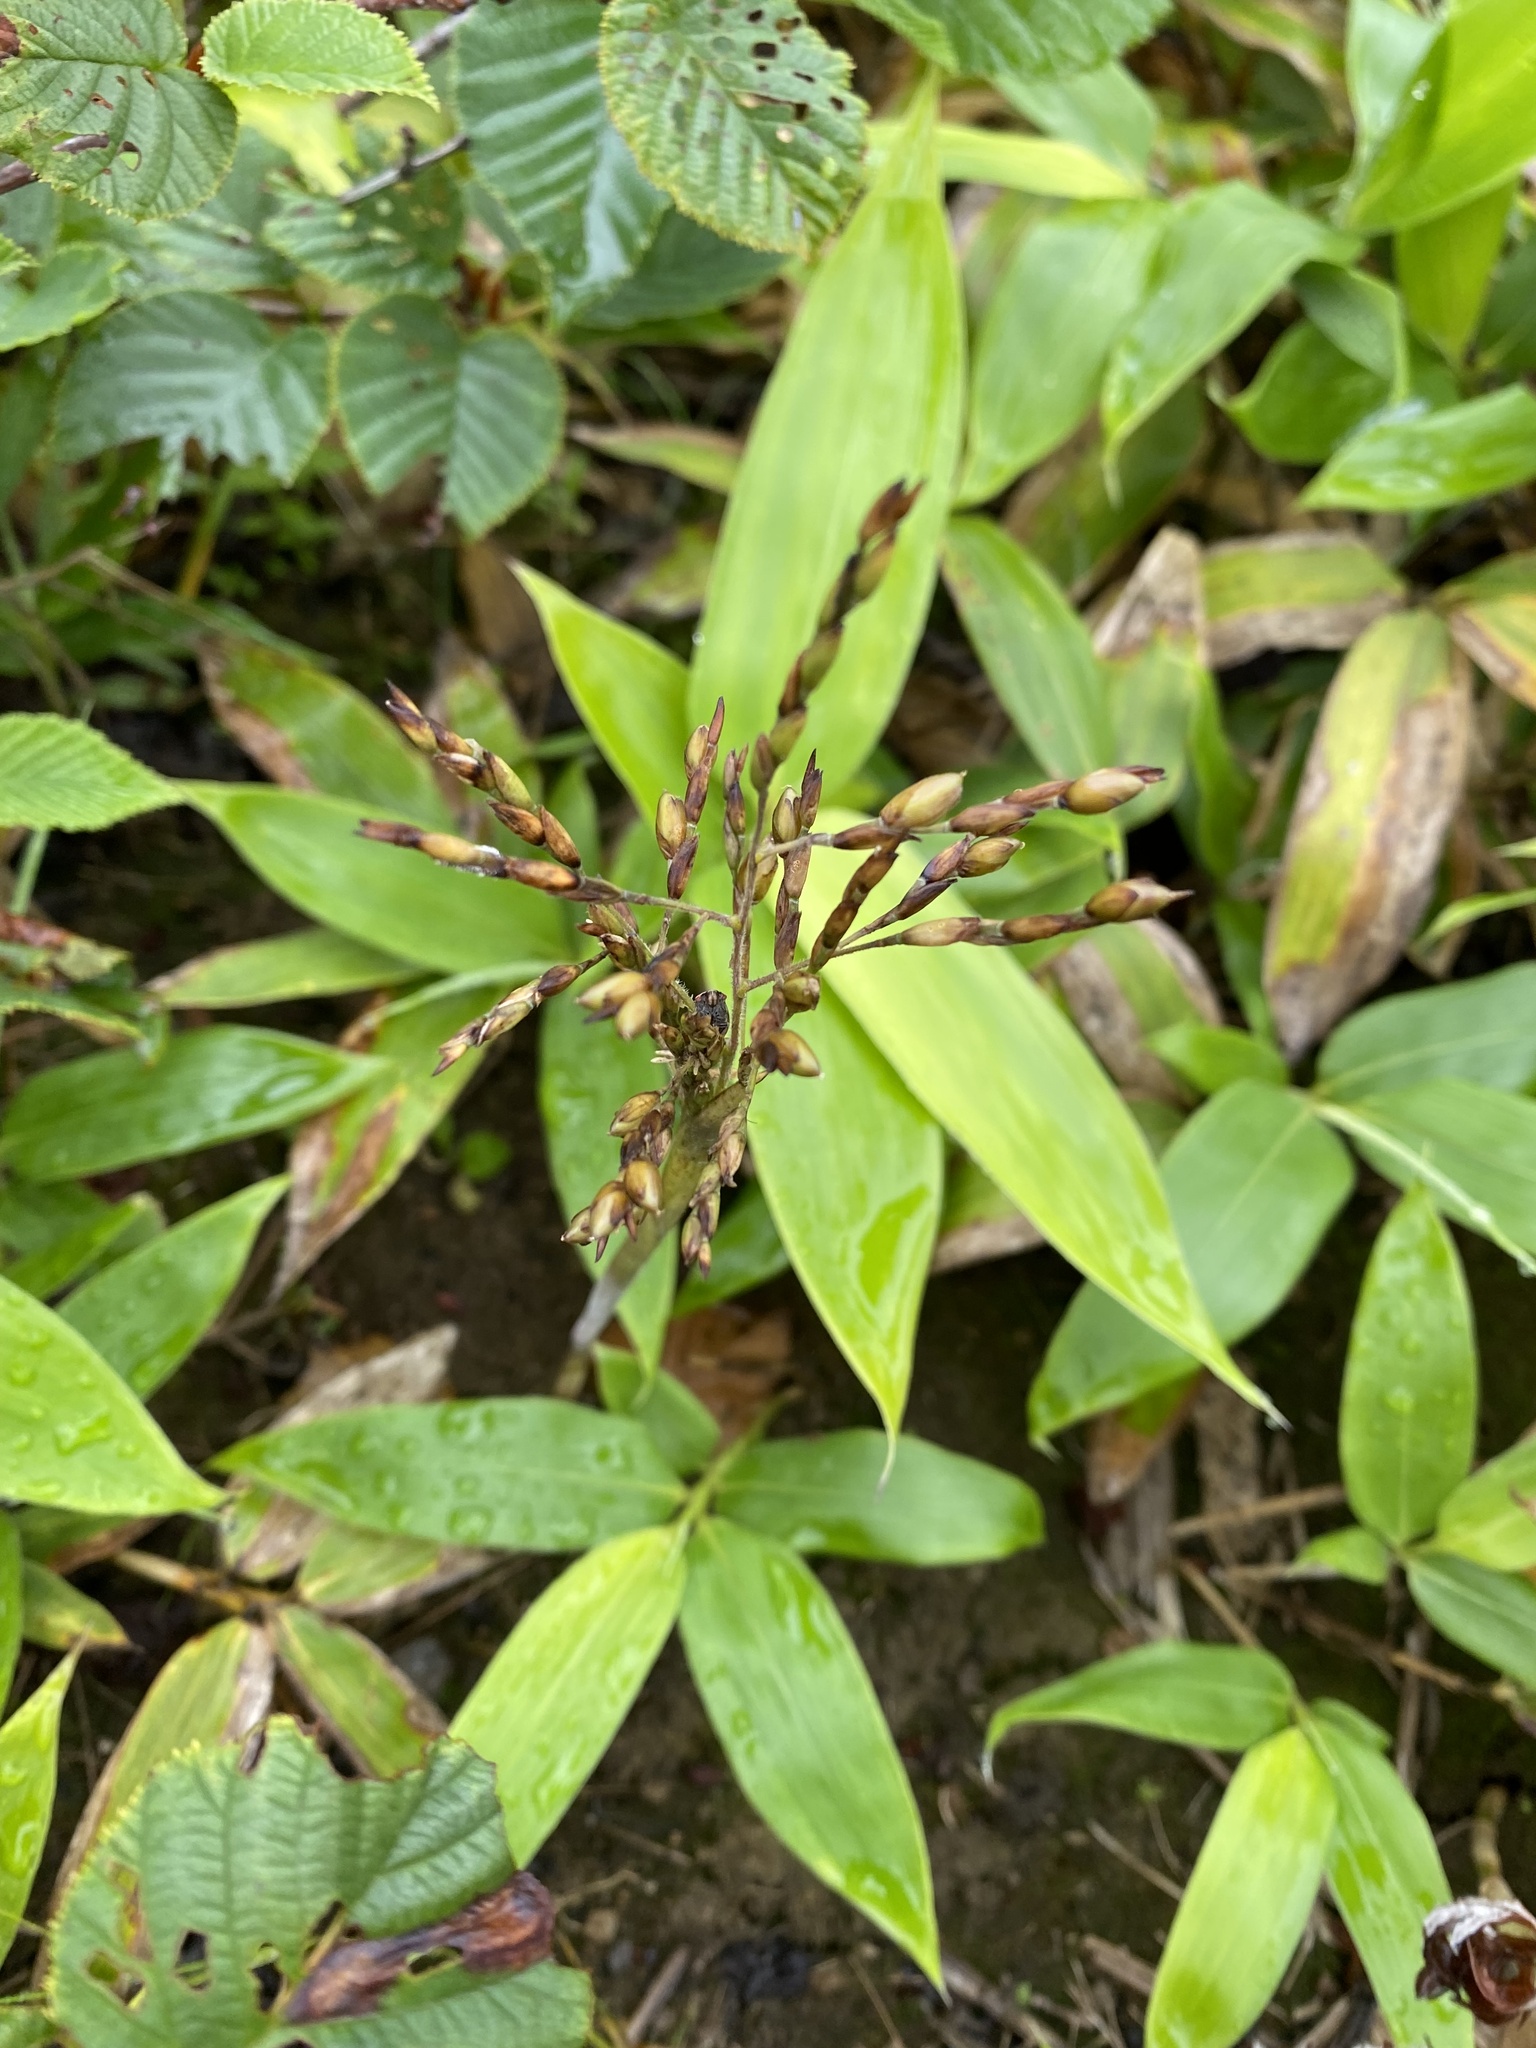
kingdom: Plantae
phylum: Tracheophyta
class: Liliopsida
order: Poales
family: Poaceae
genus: Sasa
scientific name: Sasa kurilensis
